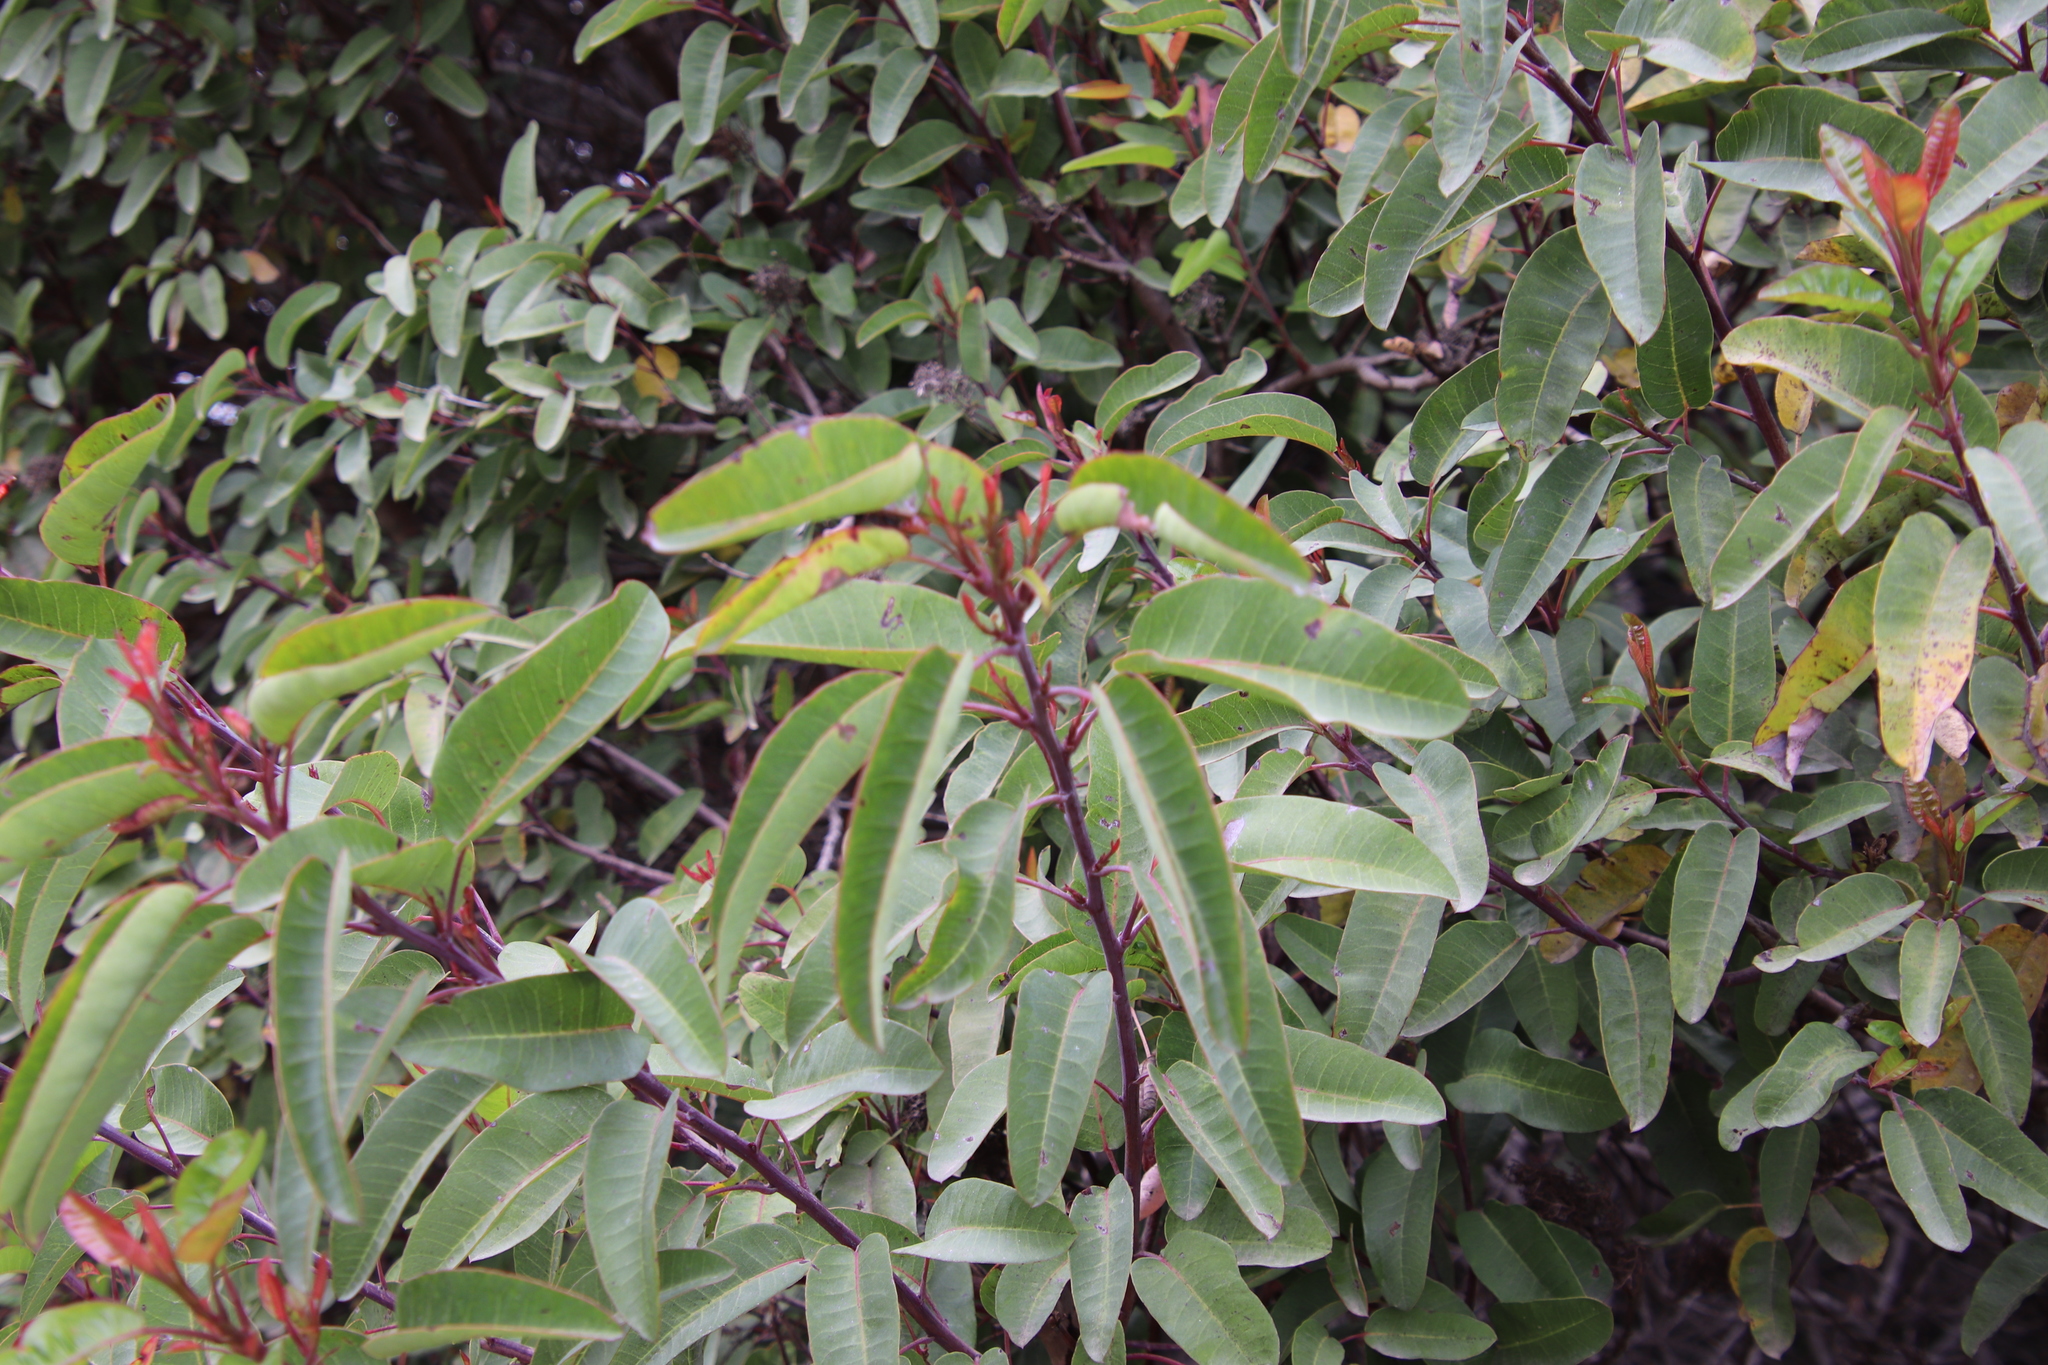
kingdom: Plantae
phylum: Tracheophyta
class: Magnoliopsida
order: Sapindales
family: Anacardiaceae
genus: Malosma
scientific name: Malosma laurina
